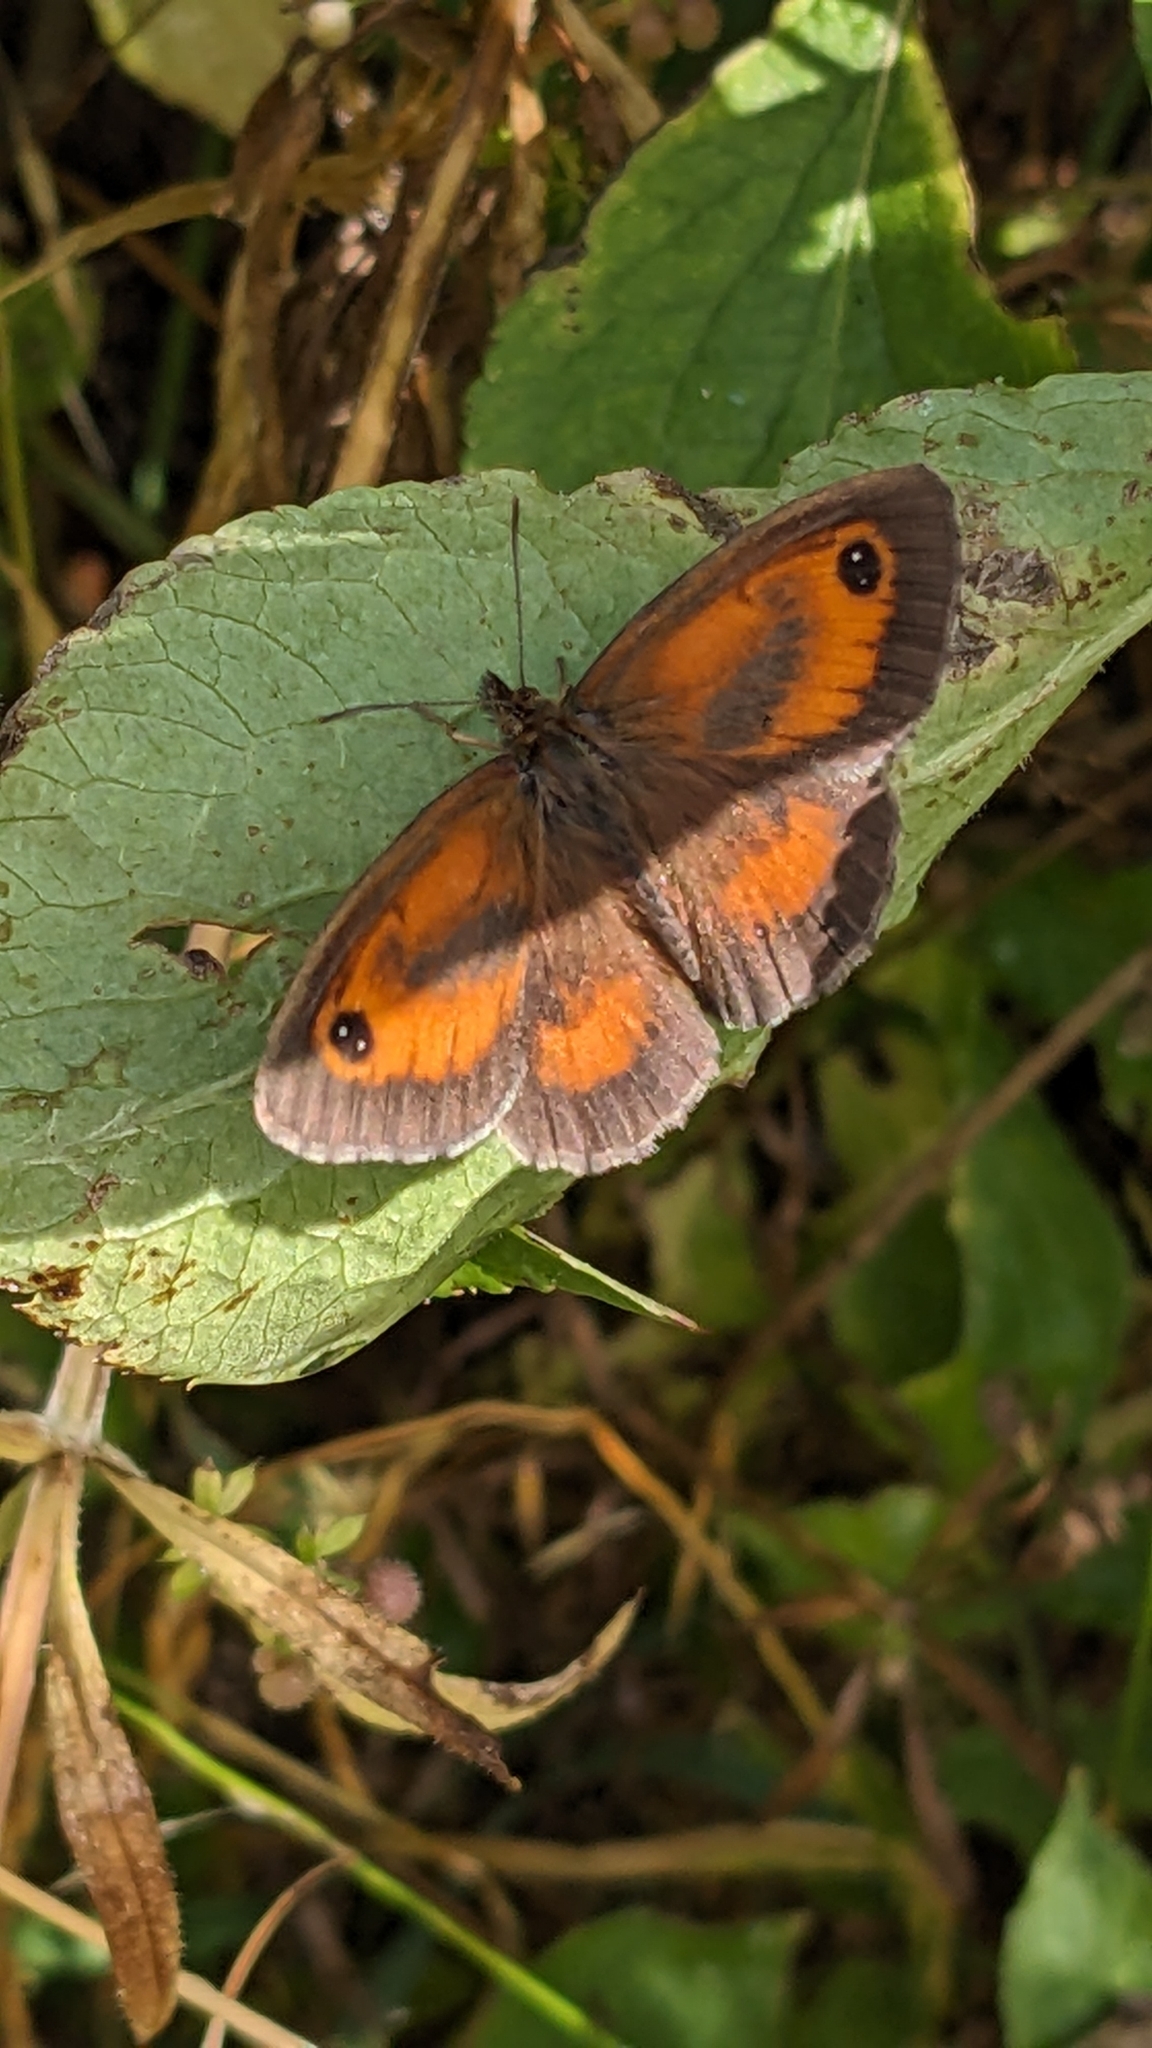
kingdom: Animalia
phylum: Arthropoda
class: Insecta
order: Lepidoptera
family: Nymphalidae
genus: Pyronia
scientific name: Pyronia tithonus
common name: Gatekeeper
